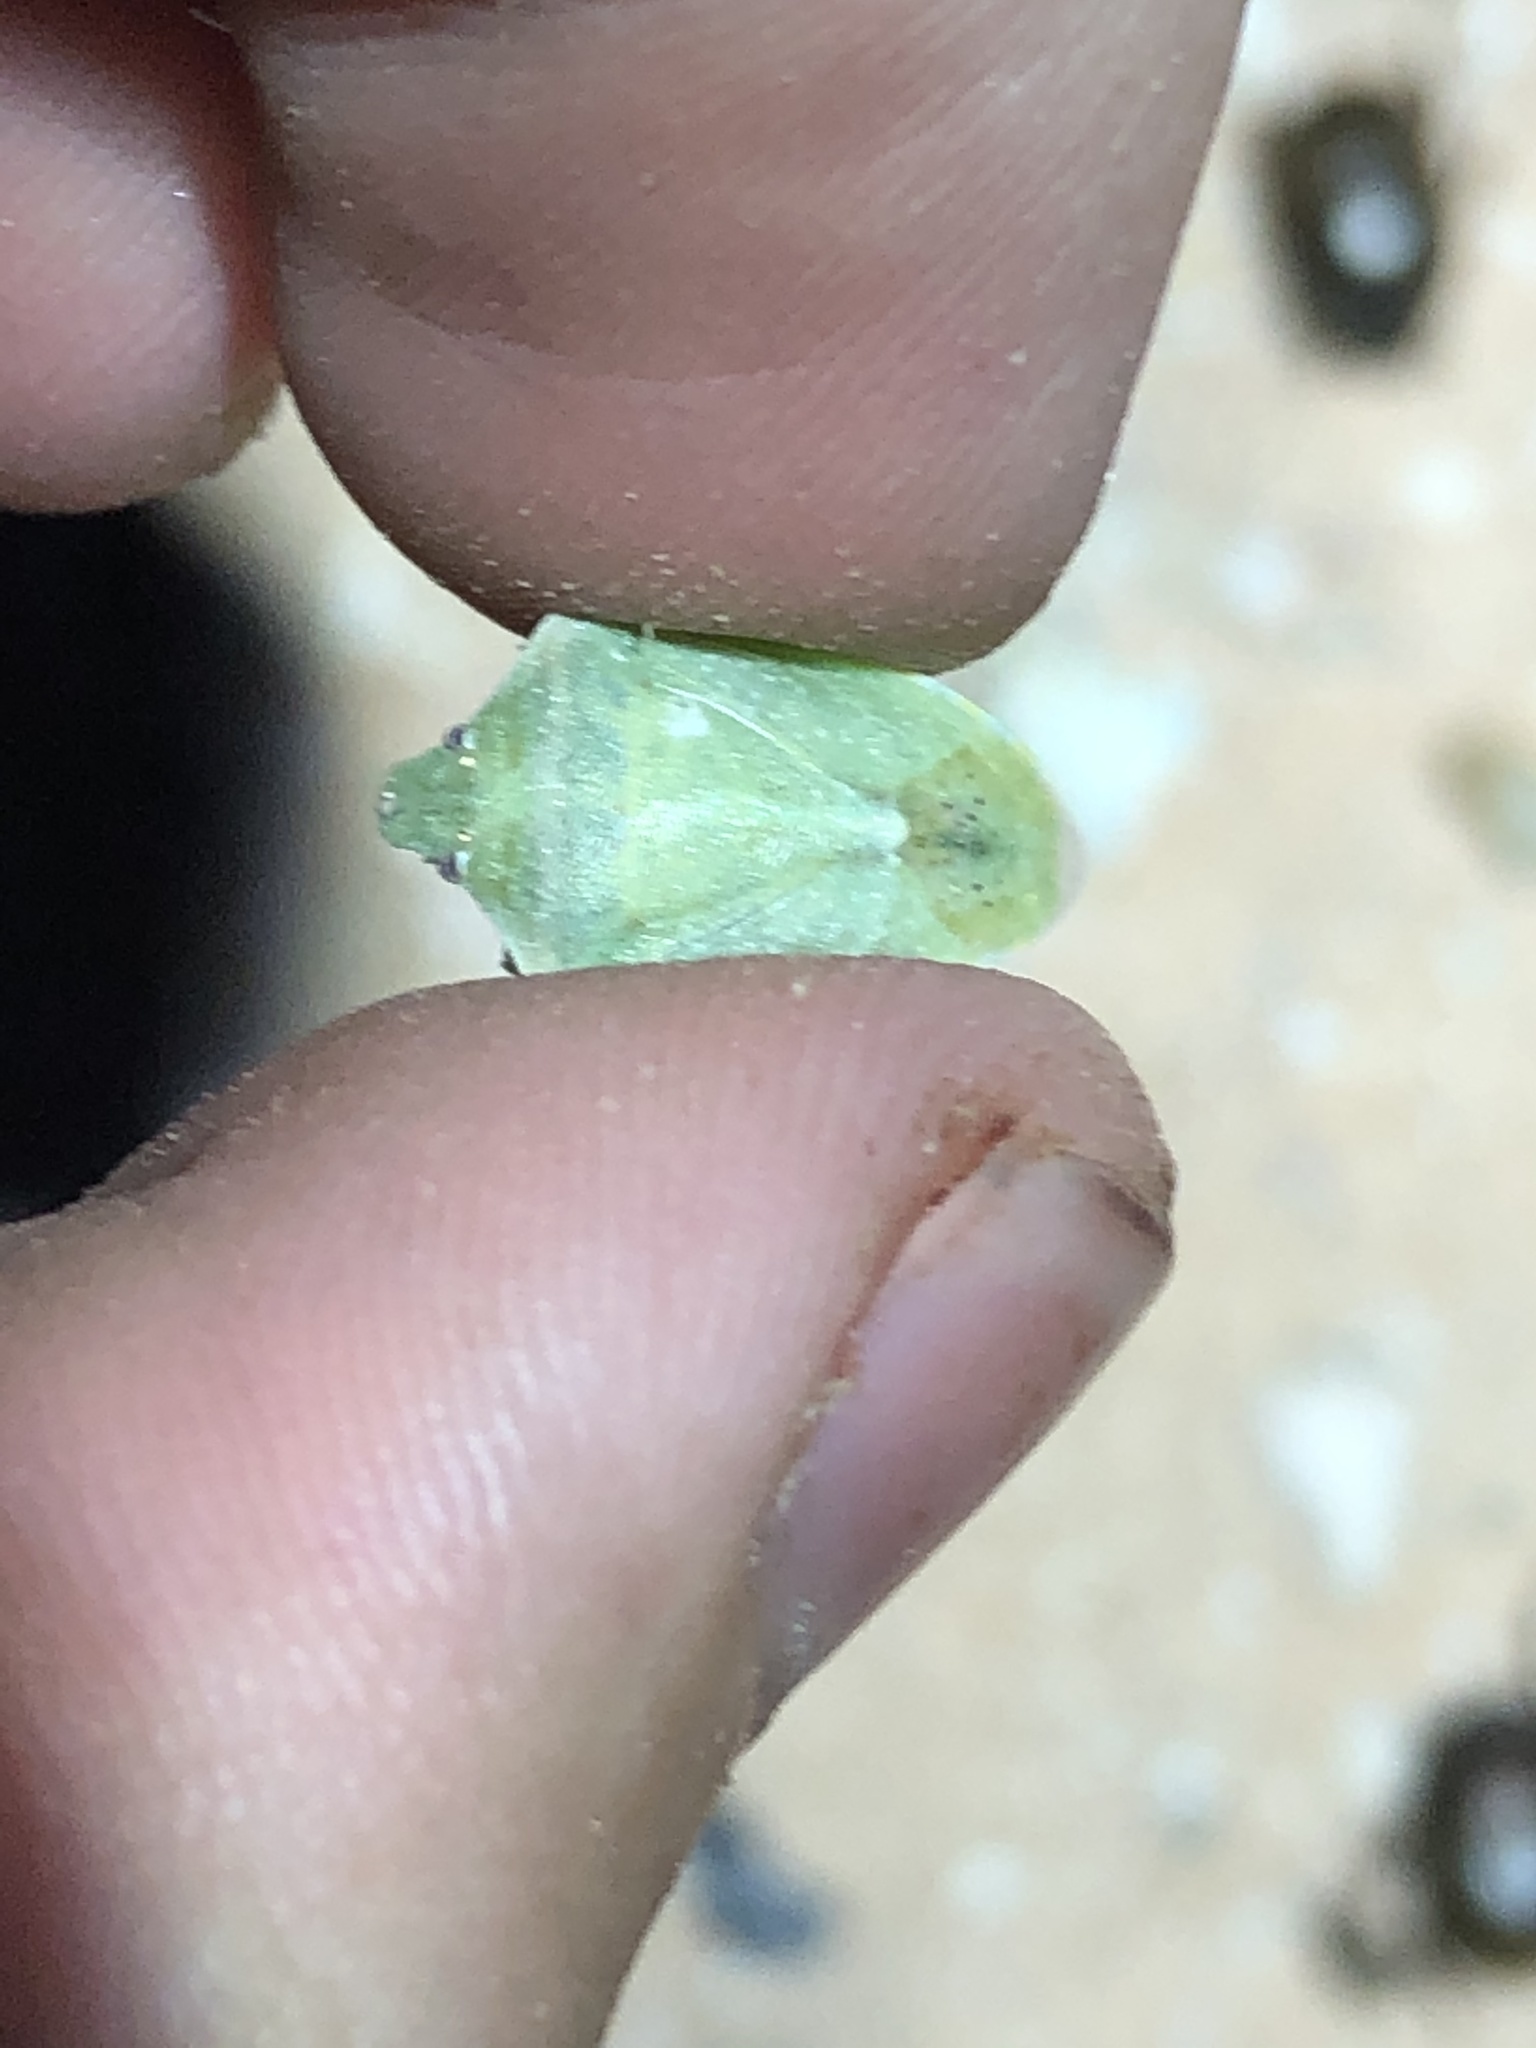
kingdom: Animalia
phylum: Arthropoda
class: Insecta
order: Hemiptera
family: Pentatomidae
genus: Thyanta
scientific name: Thyanta custator
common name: Stink bug
